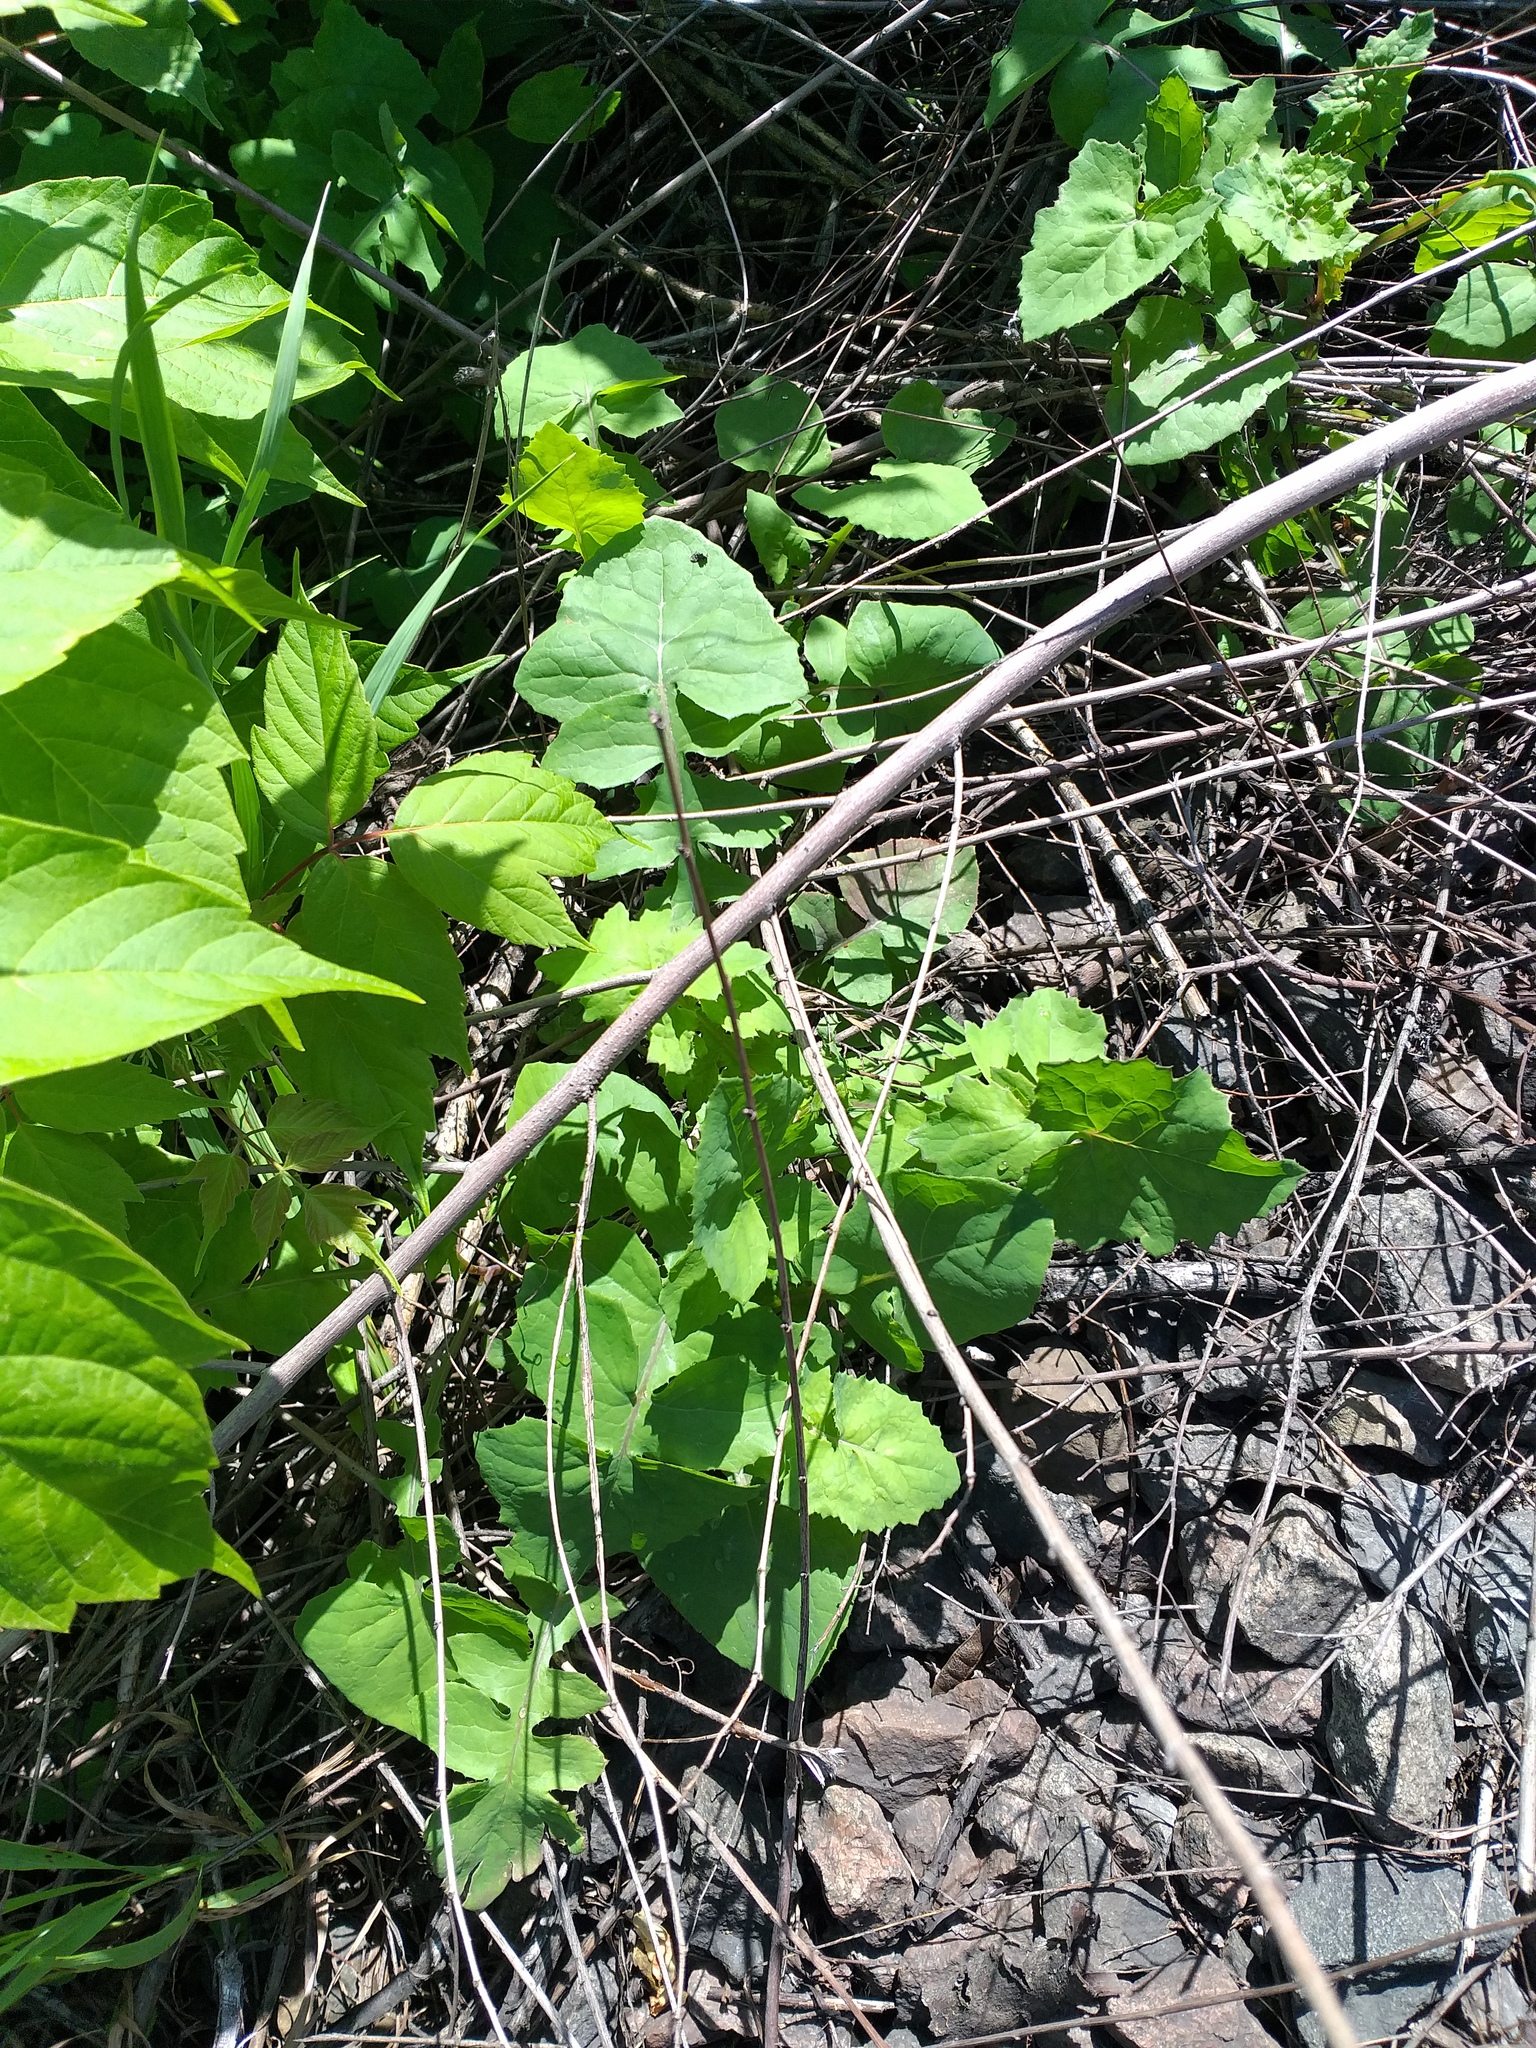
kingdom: Plantae
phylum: Tracheophyta
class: Magnoliopsida
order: Asterales
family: Asteraceae
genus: Sonchus
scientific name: Sonchus oleraceus
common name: Common sowthistle
